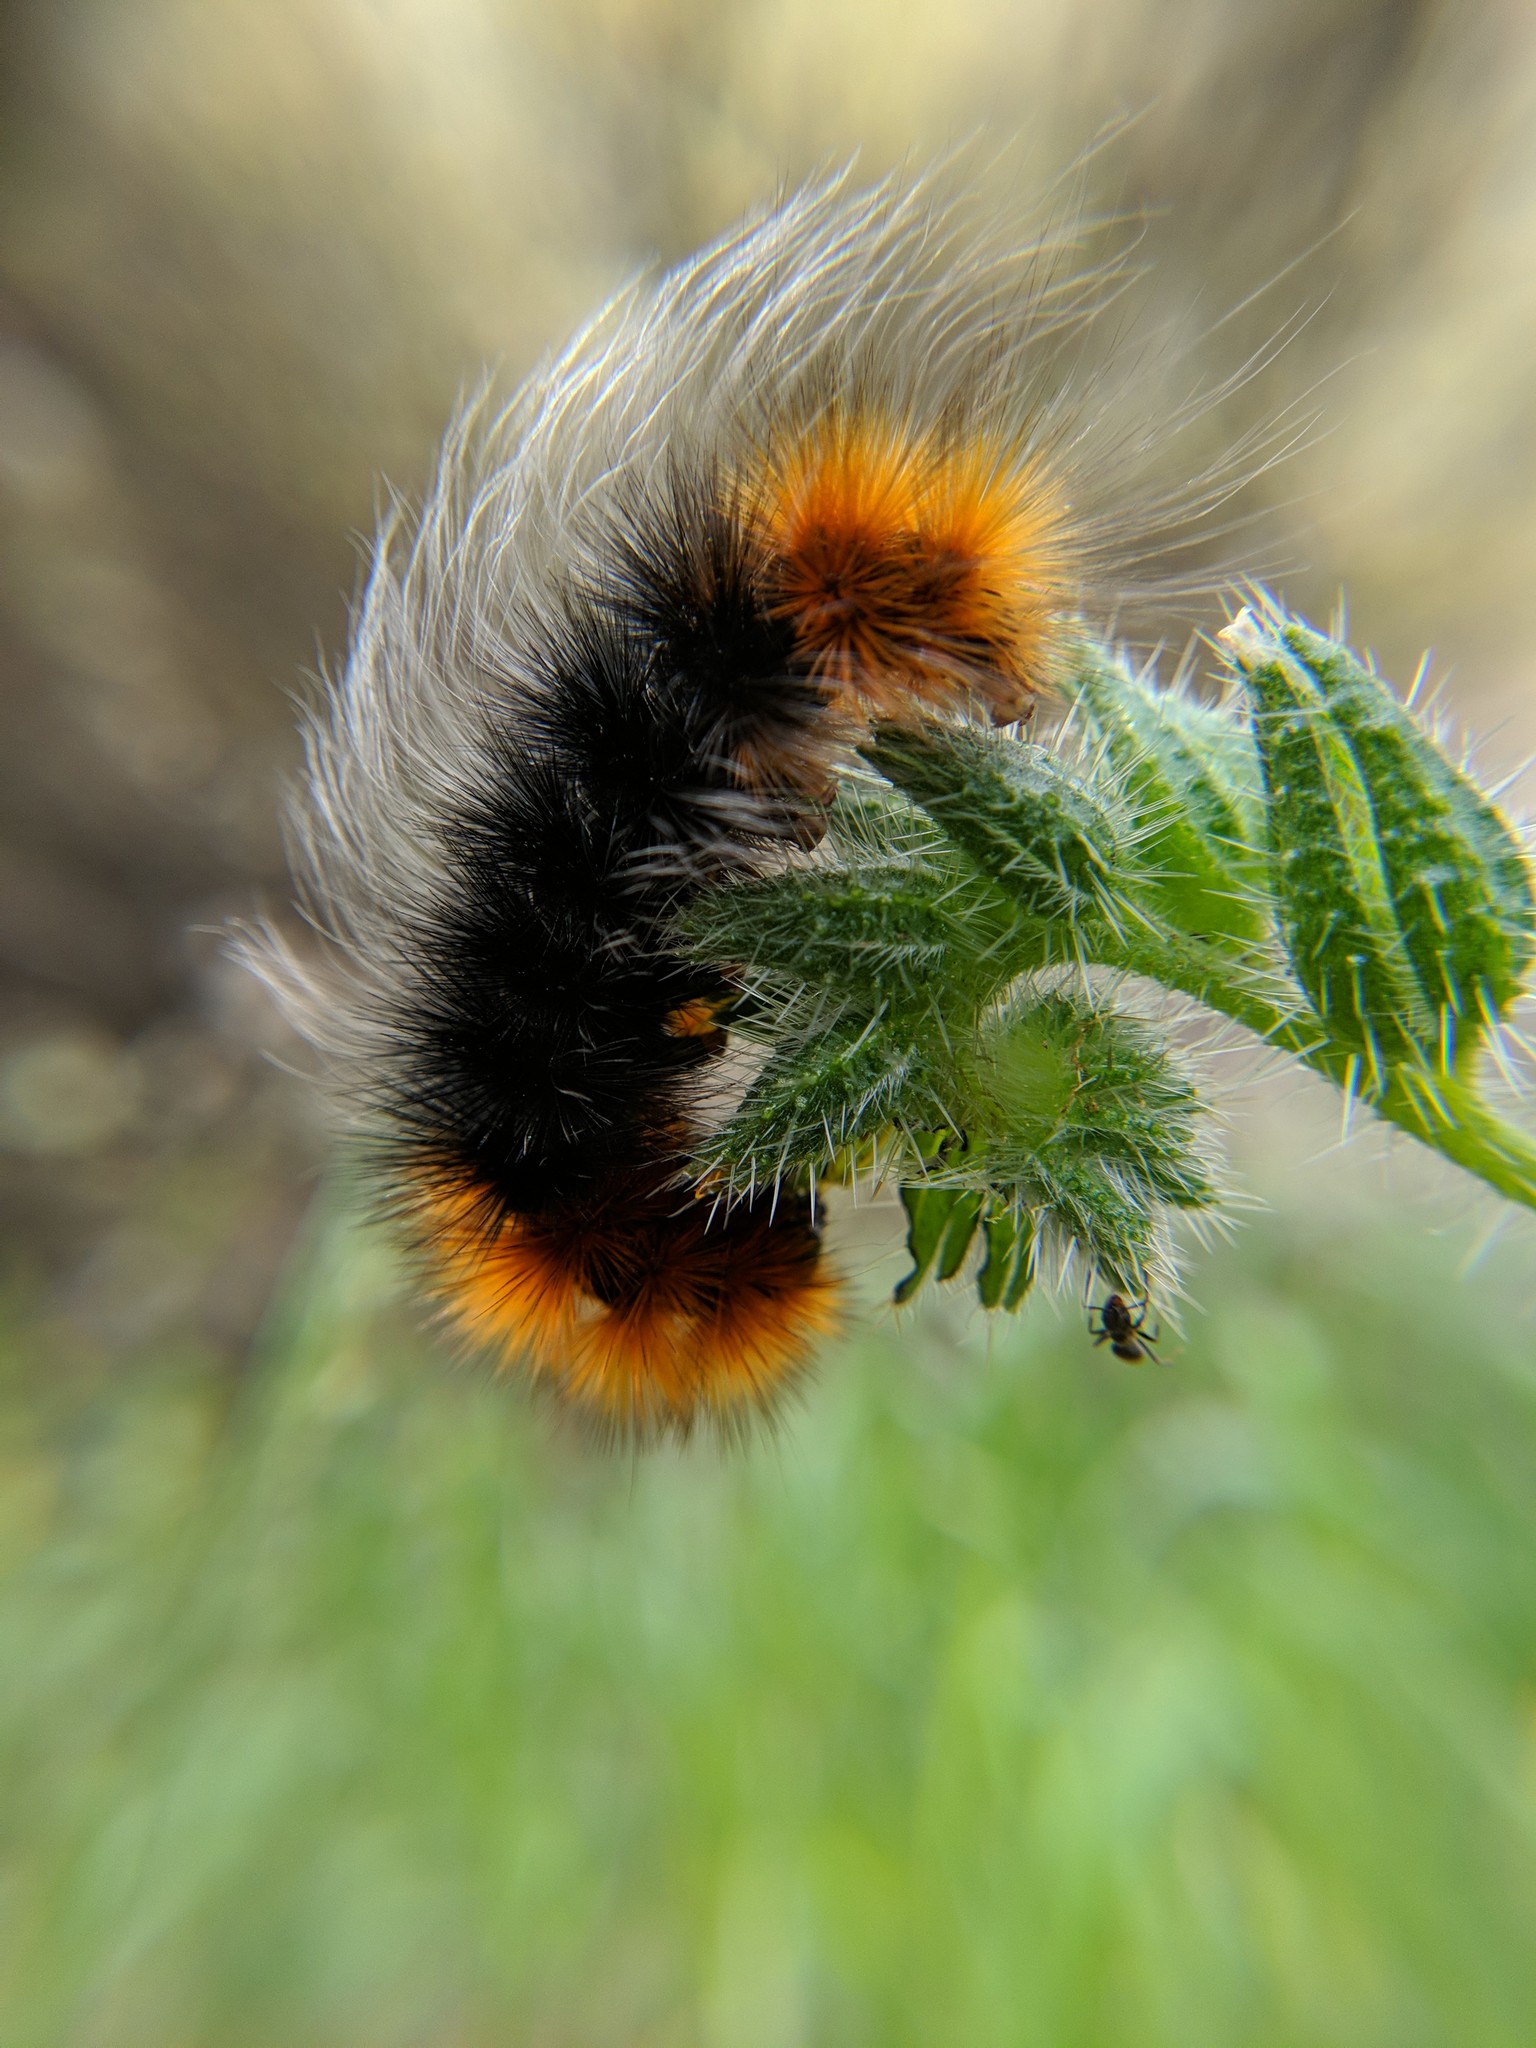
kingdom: Animalia
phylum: Arthropoda
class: Insecta
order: Lepidoptera
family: Erebidae
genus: Arctia
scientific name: Arctia tigrina
